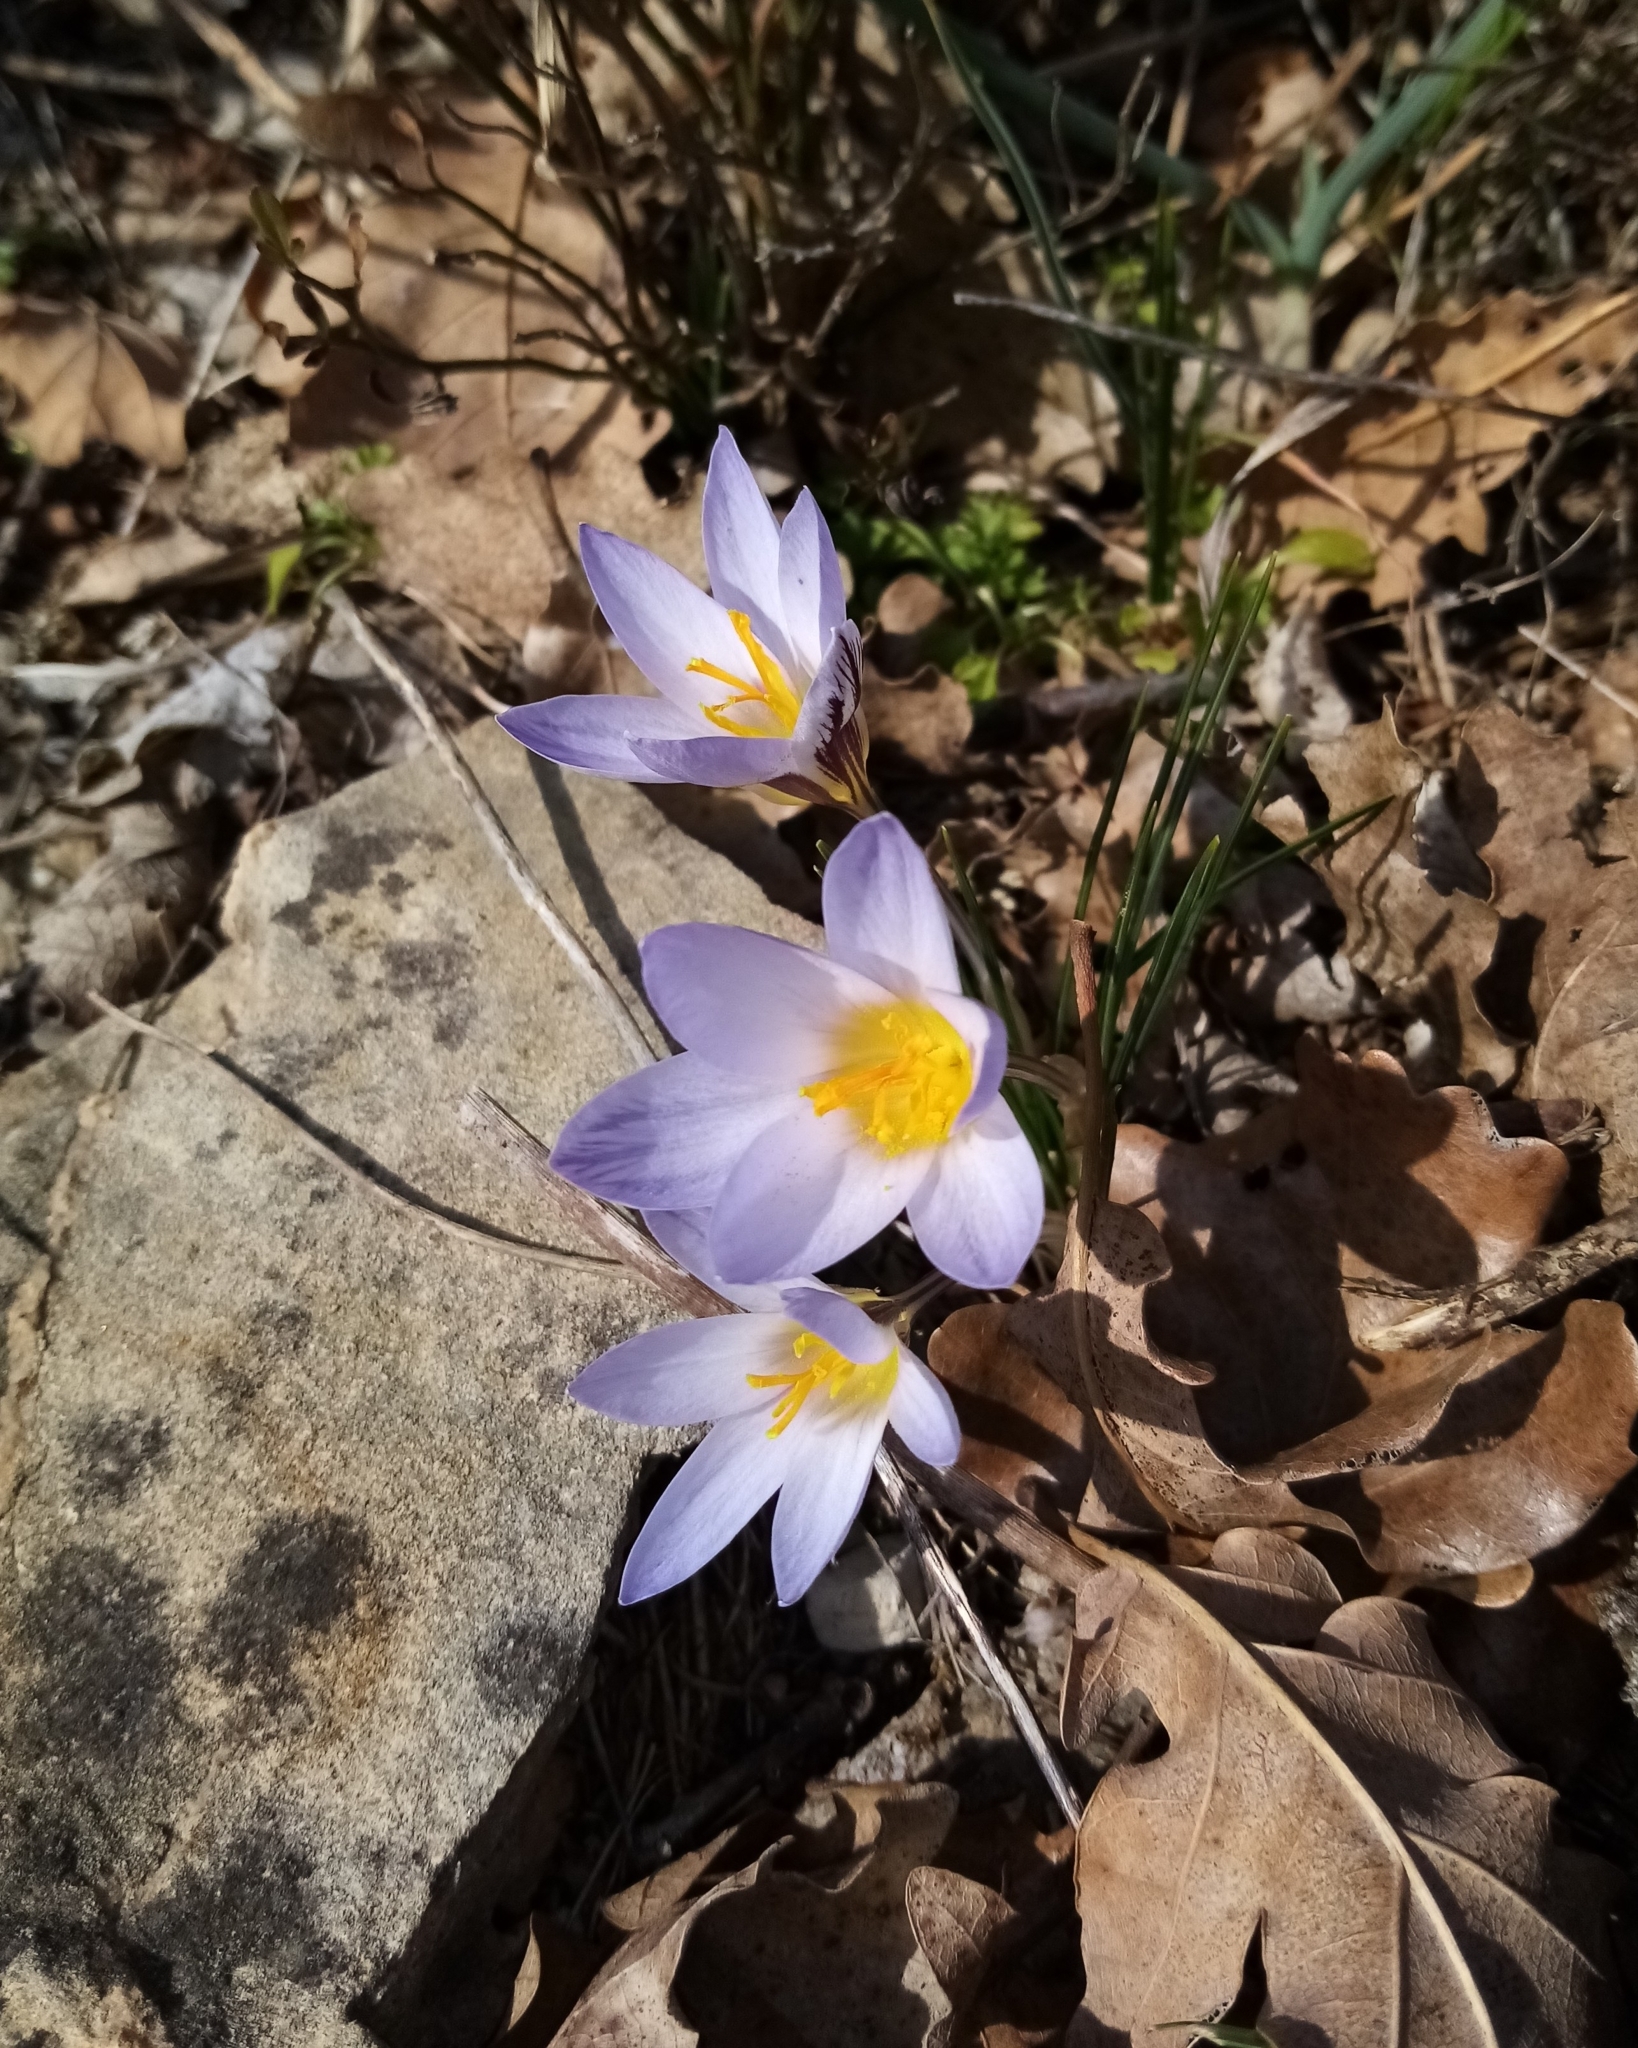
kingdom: Plantae
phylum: Tracheophyta
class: Liliopsida
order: Asparagales
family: Iridaceae
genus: Crocus
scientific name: Crocus reticulatus
